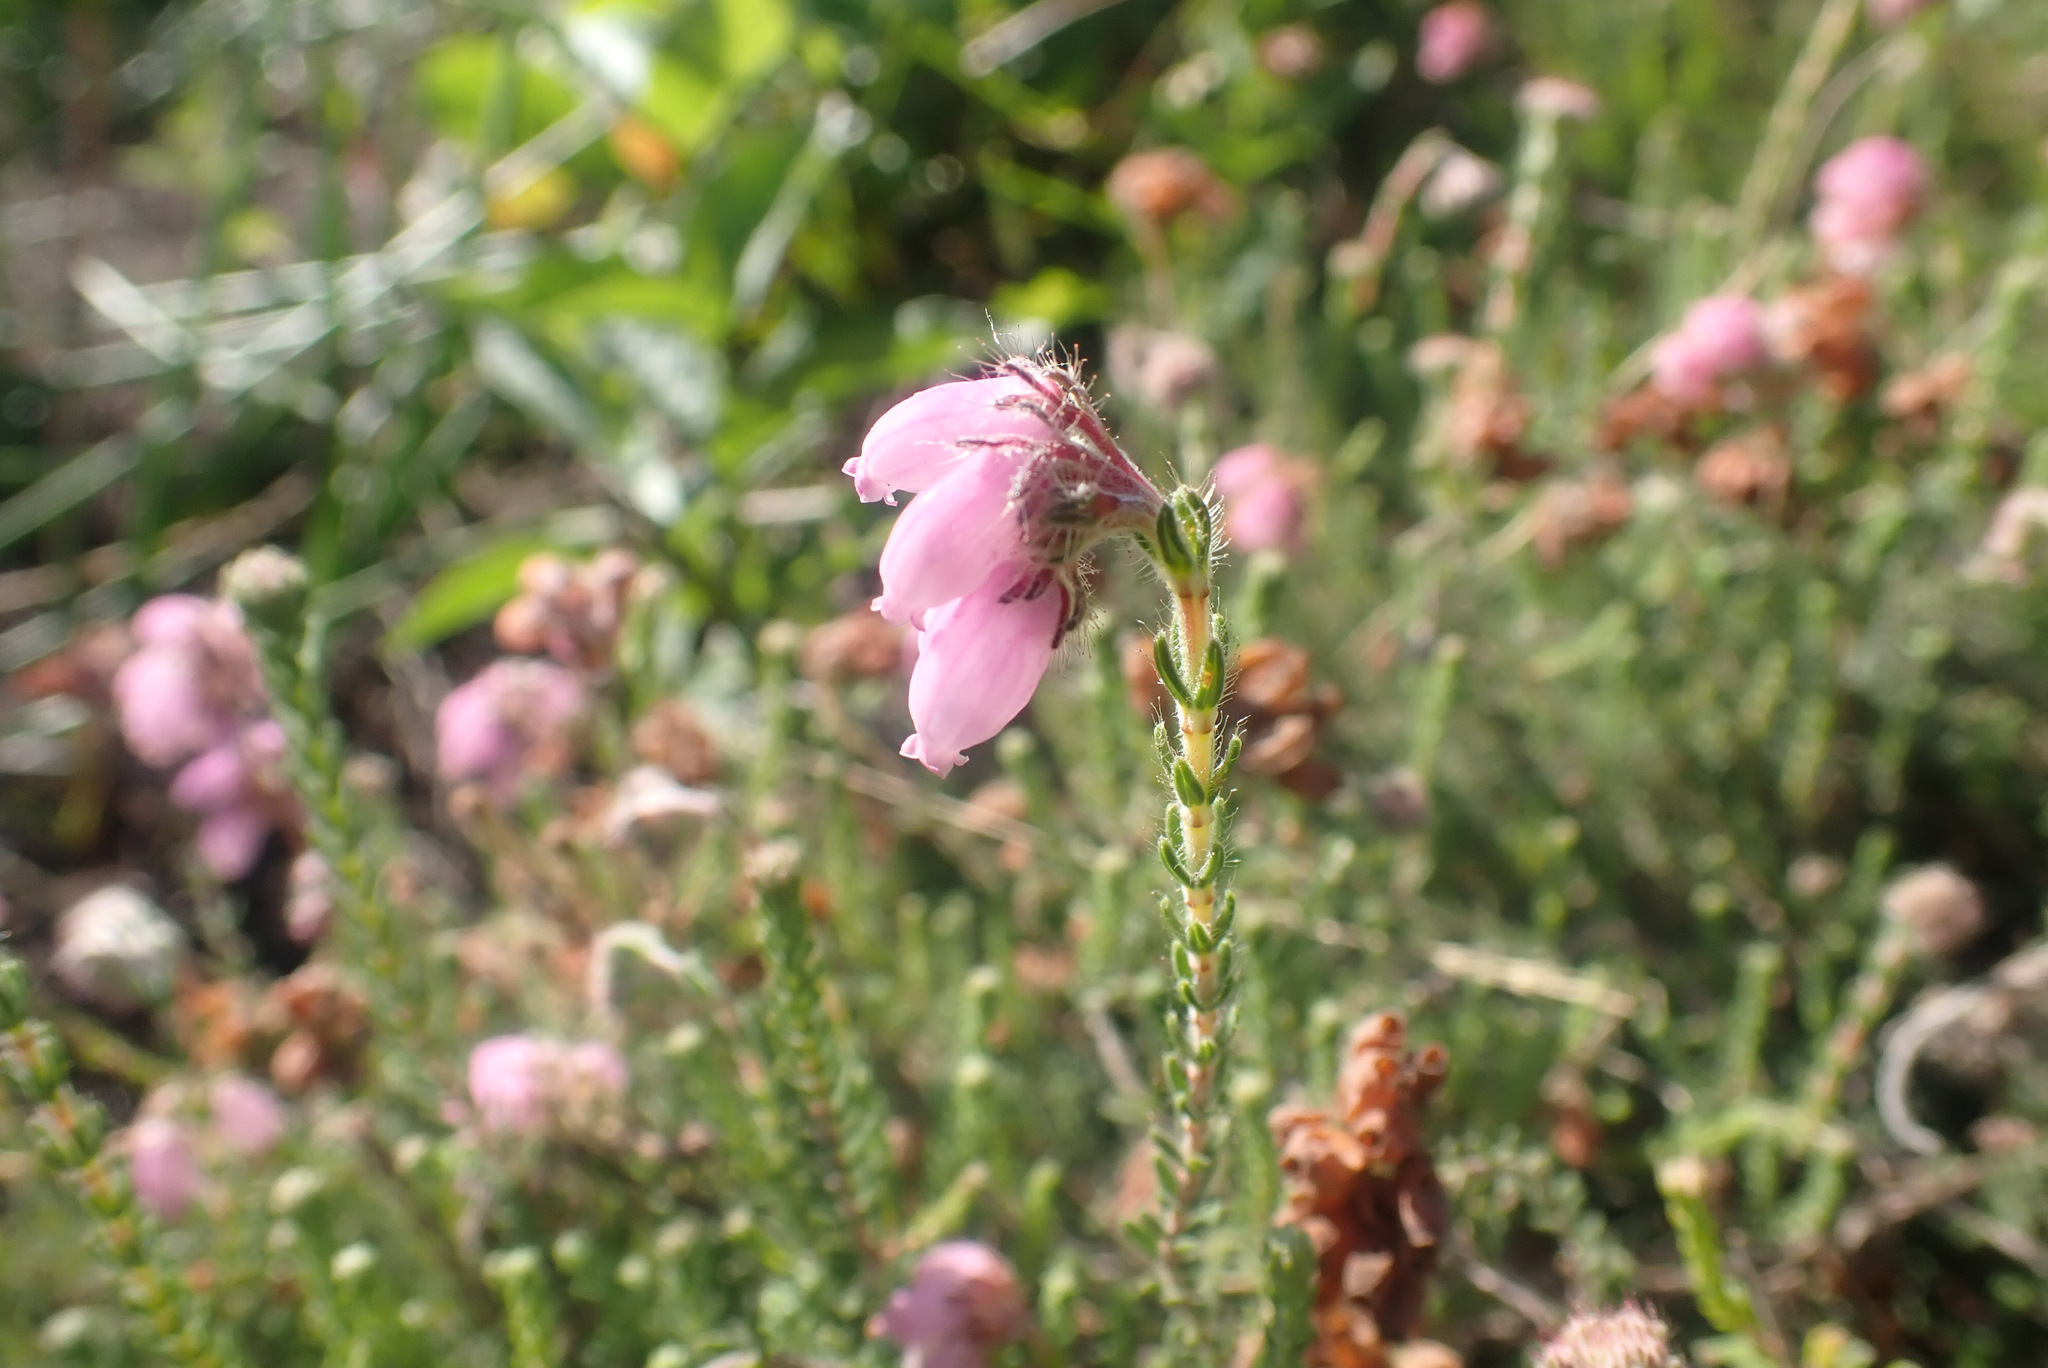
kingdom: Plantae
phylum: Tracheophyta
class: Magnoliopsida
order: Ericales
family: Ericaceae
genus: Erica
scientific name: Erica tetralix
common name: Cross-leaved heath
